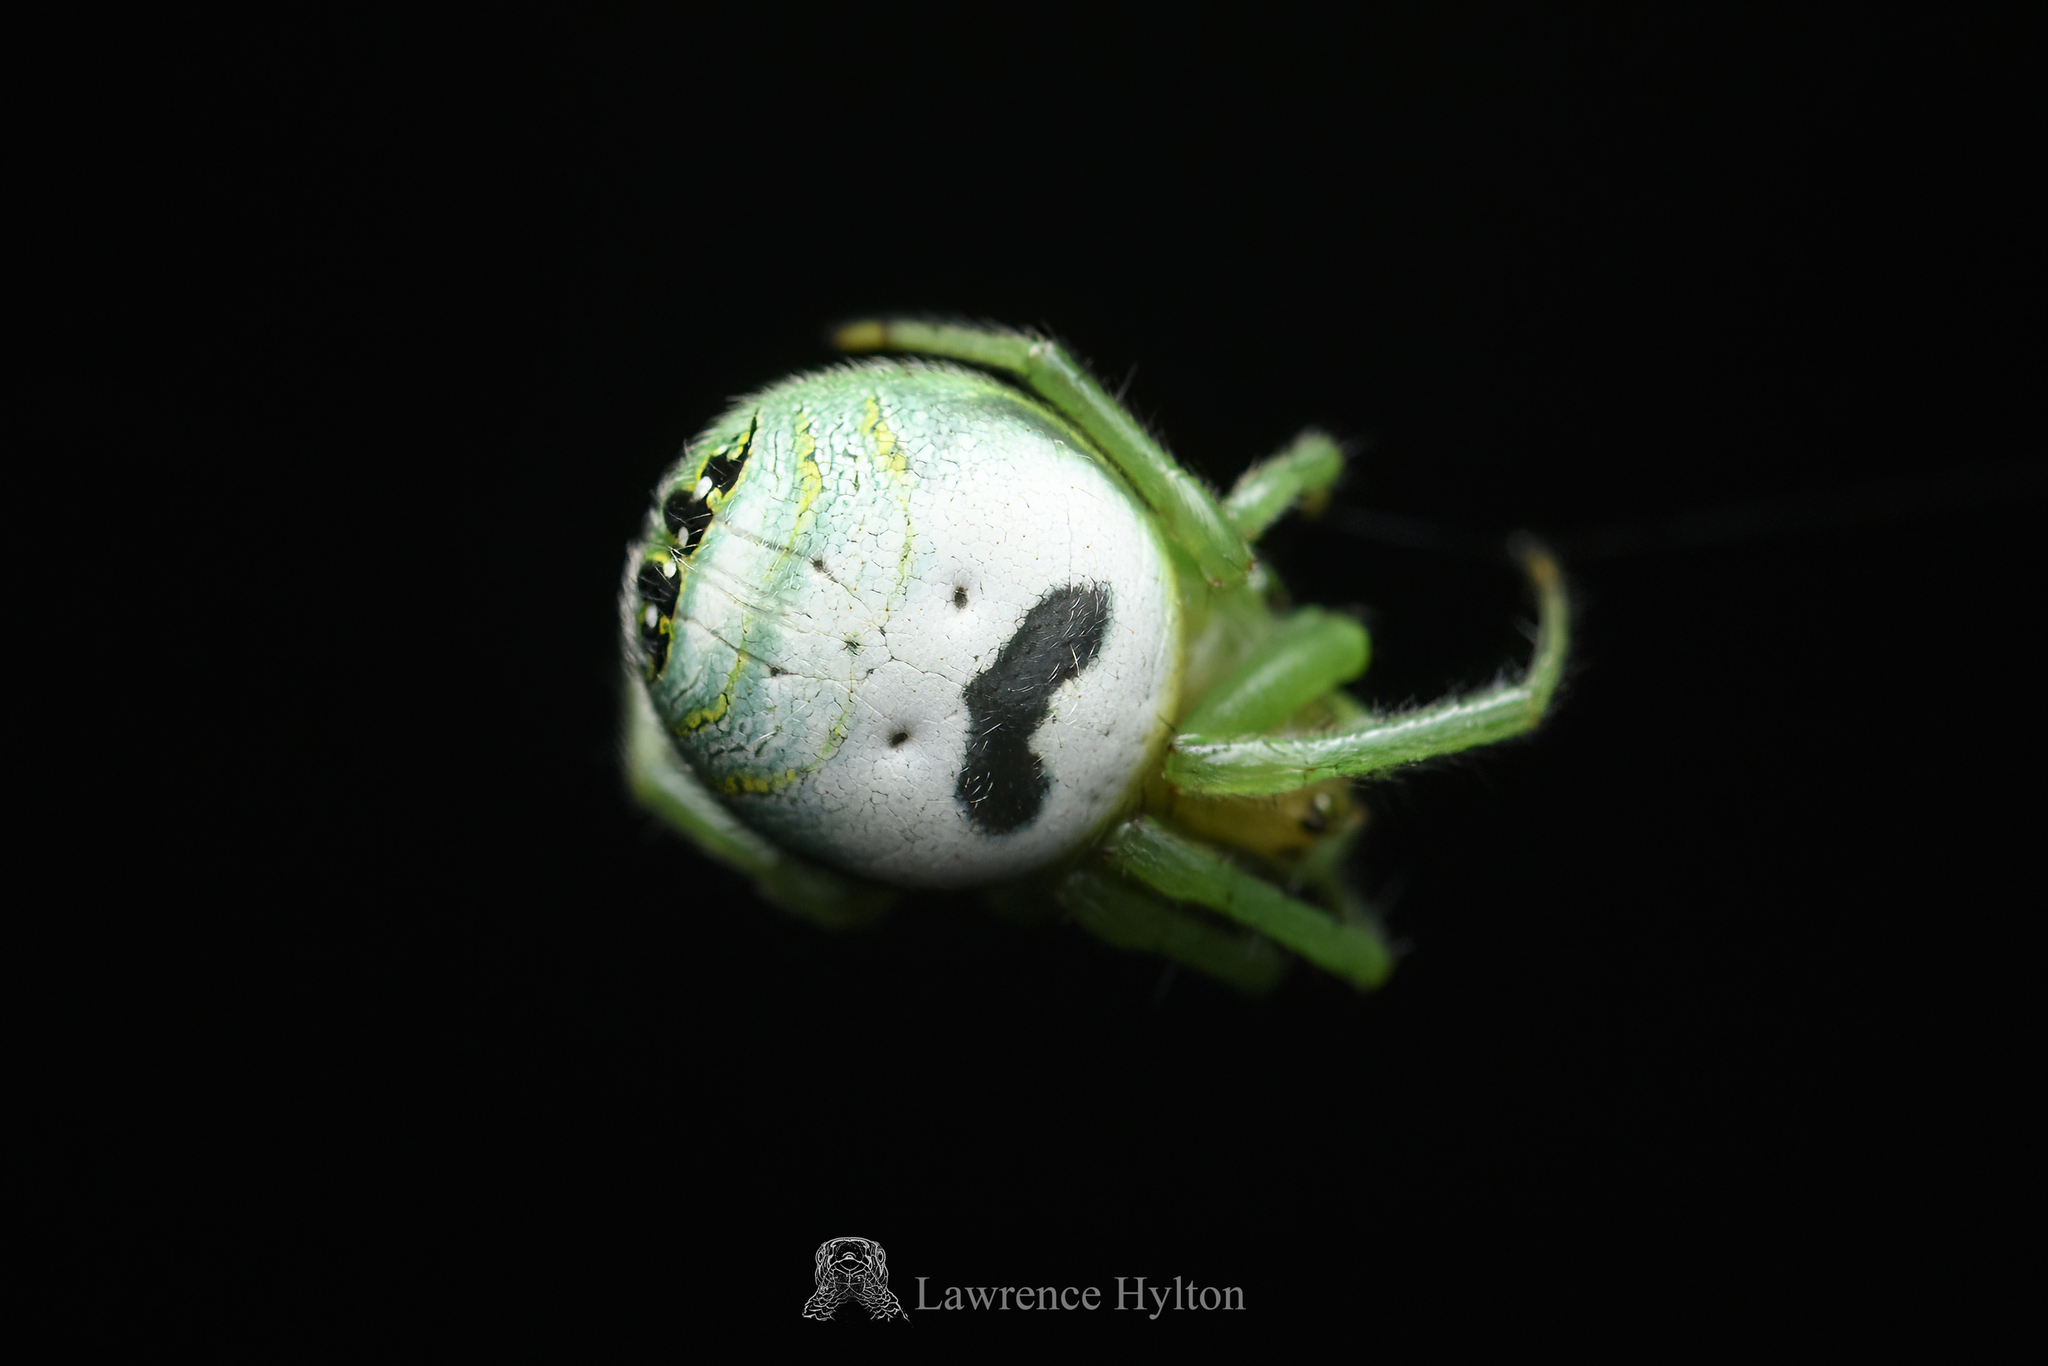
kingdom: Animalia
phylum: Arthropoda
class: Arachnida
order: Araneae
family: Araneidae
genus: Bijoaraneus
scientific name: Bijoaraneus mitificus
